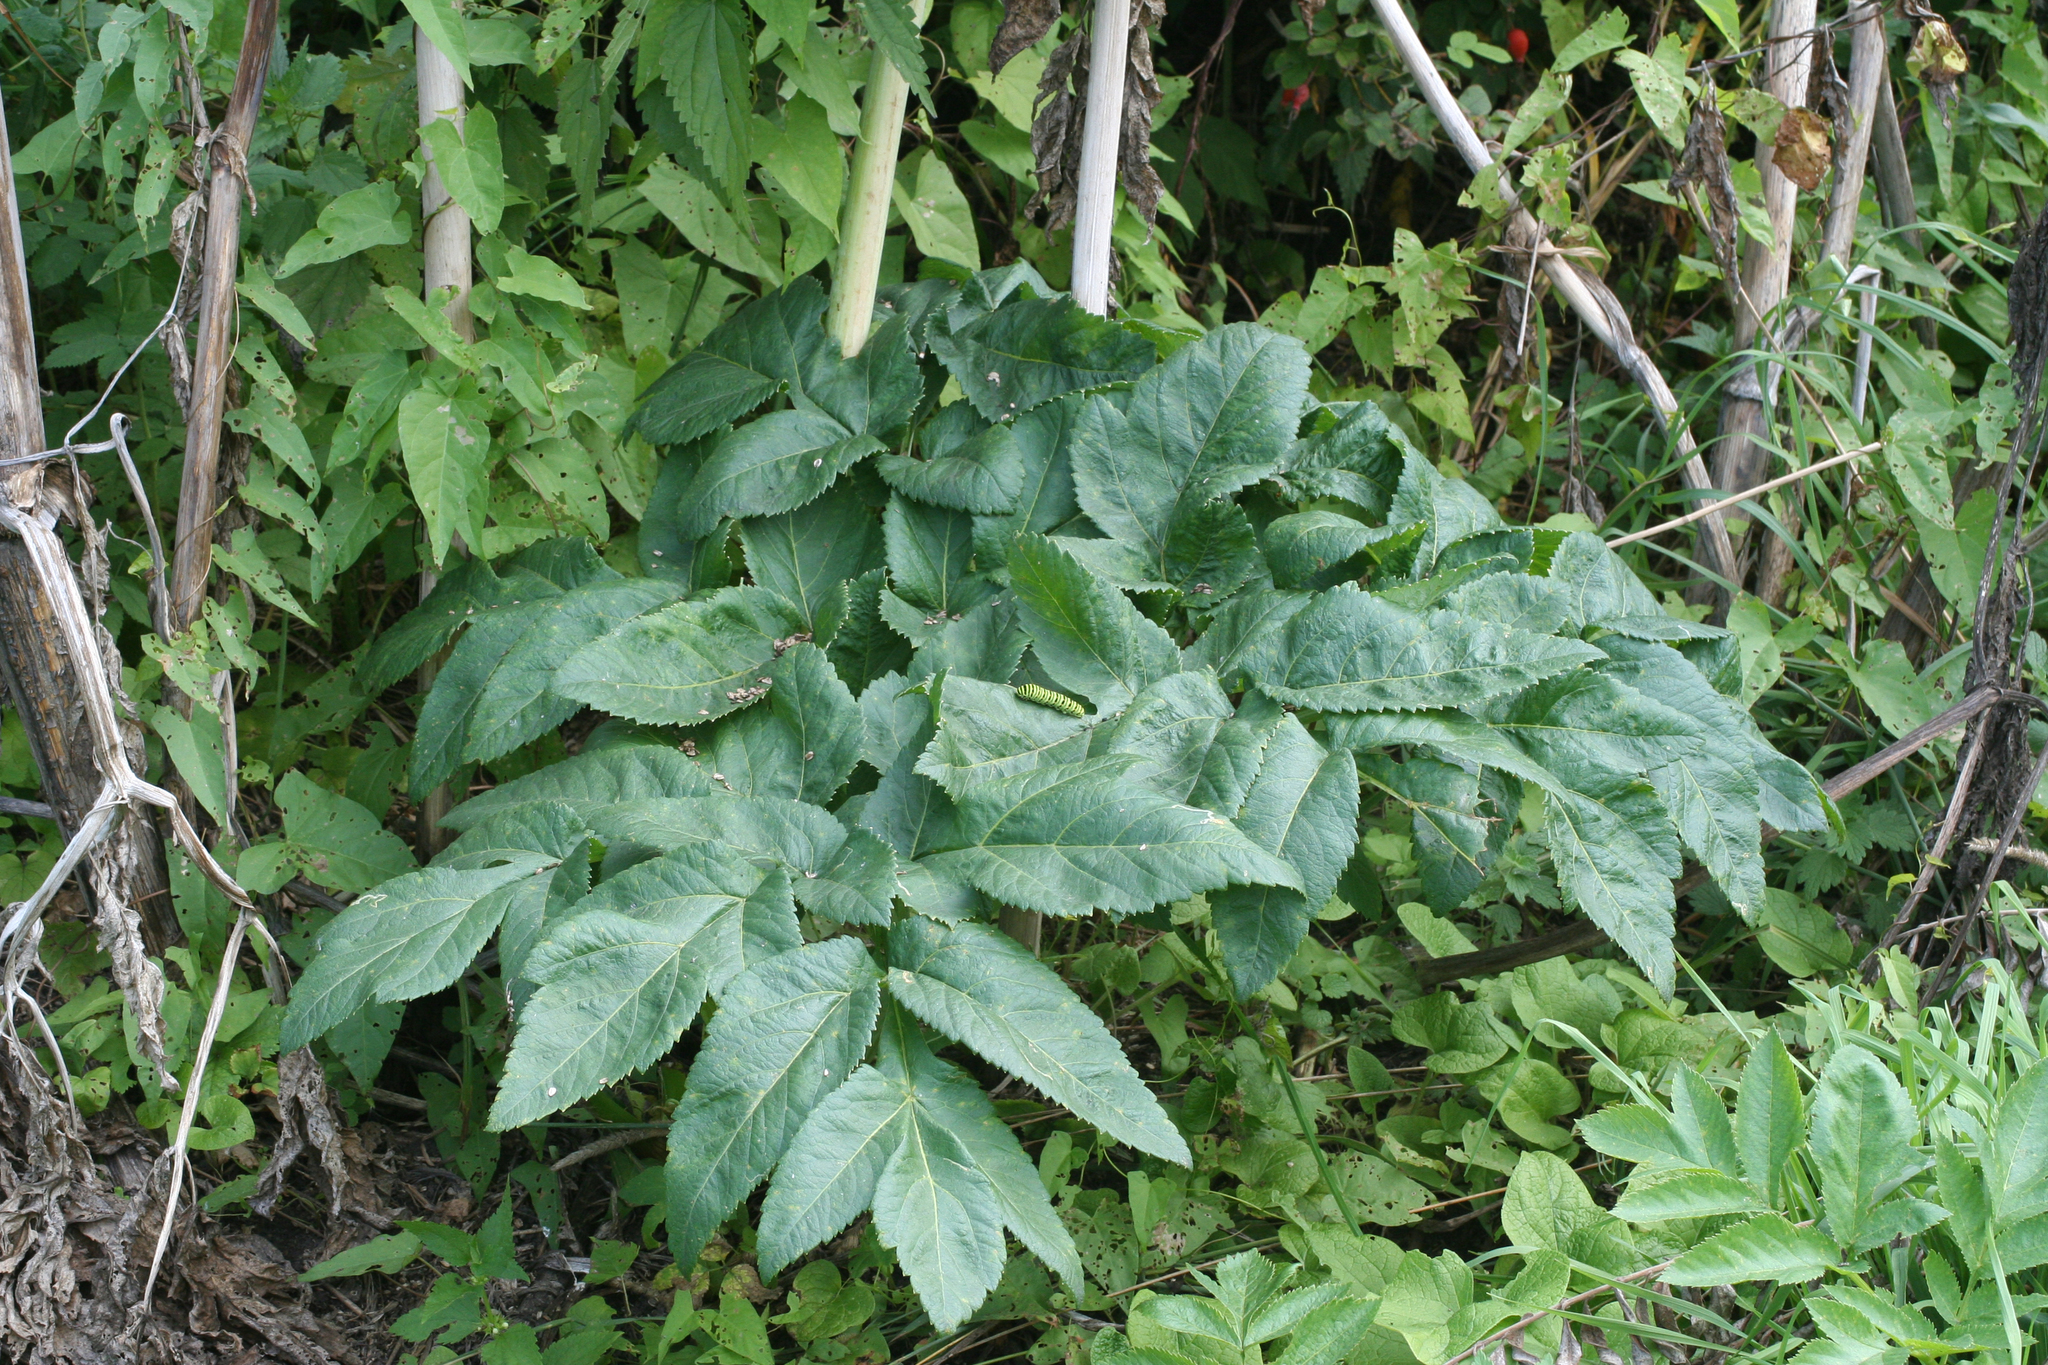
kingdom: Plantae
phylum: Tracheophyta
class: Magnoliopsida
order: Apiales
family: Apiaceae
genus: Angelica
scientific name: Angelica decurrens
